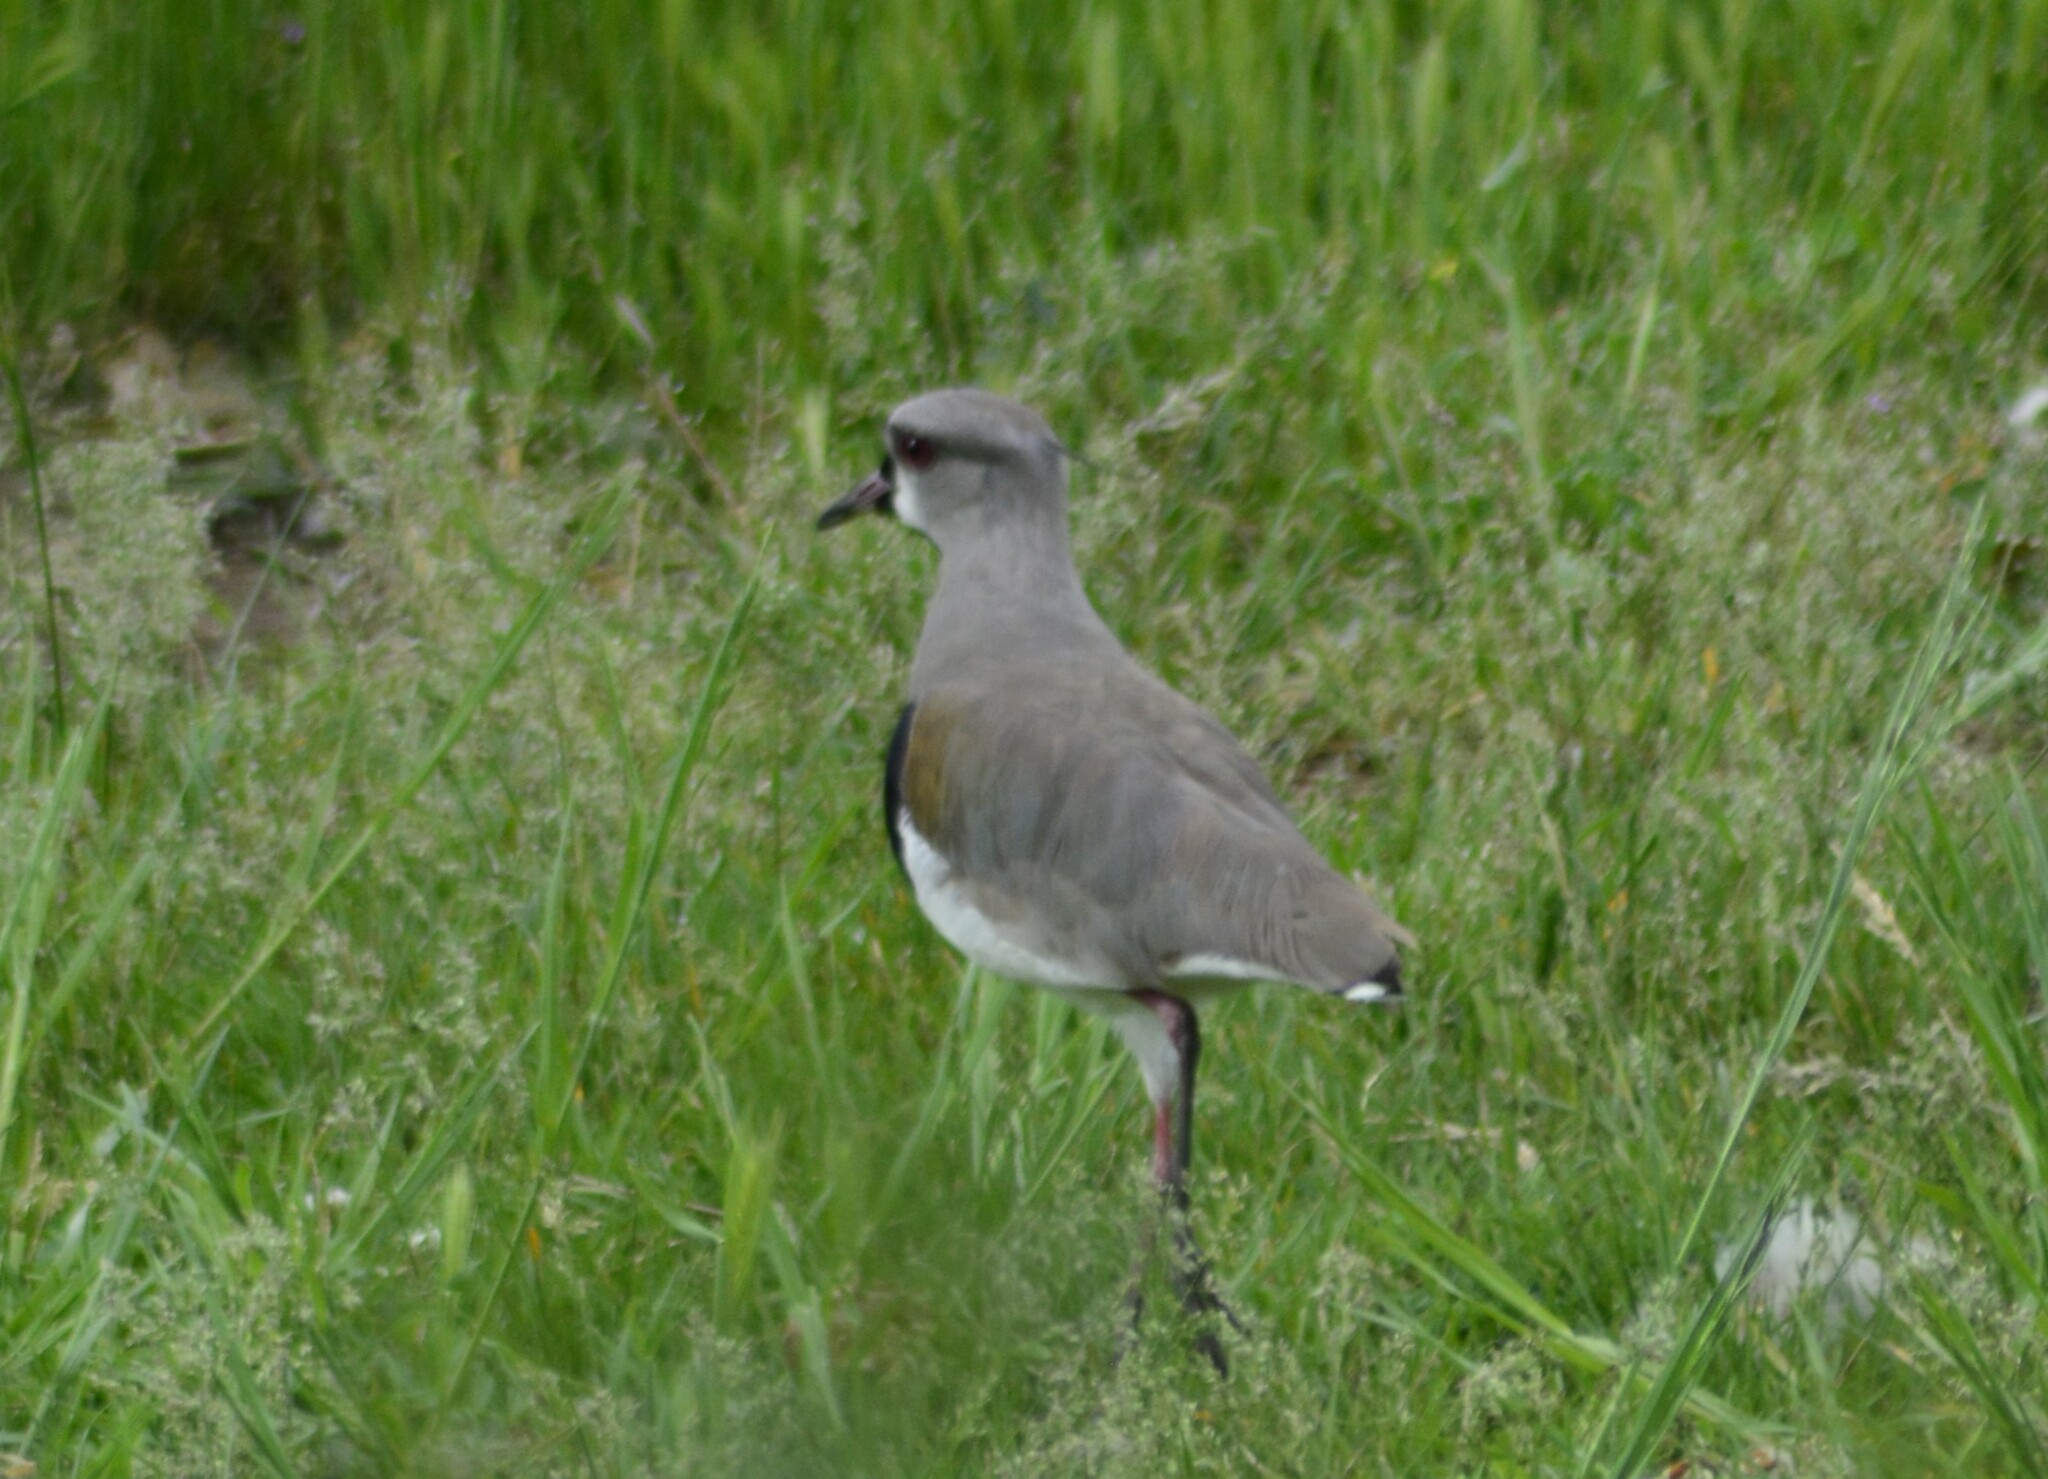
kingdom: Animalia
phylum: Chordata
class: Aves
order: Charadriiformes
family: Charadriidae
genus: Vanellus
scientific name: Vanellus chilensis
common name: Southern lapwing
